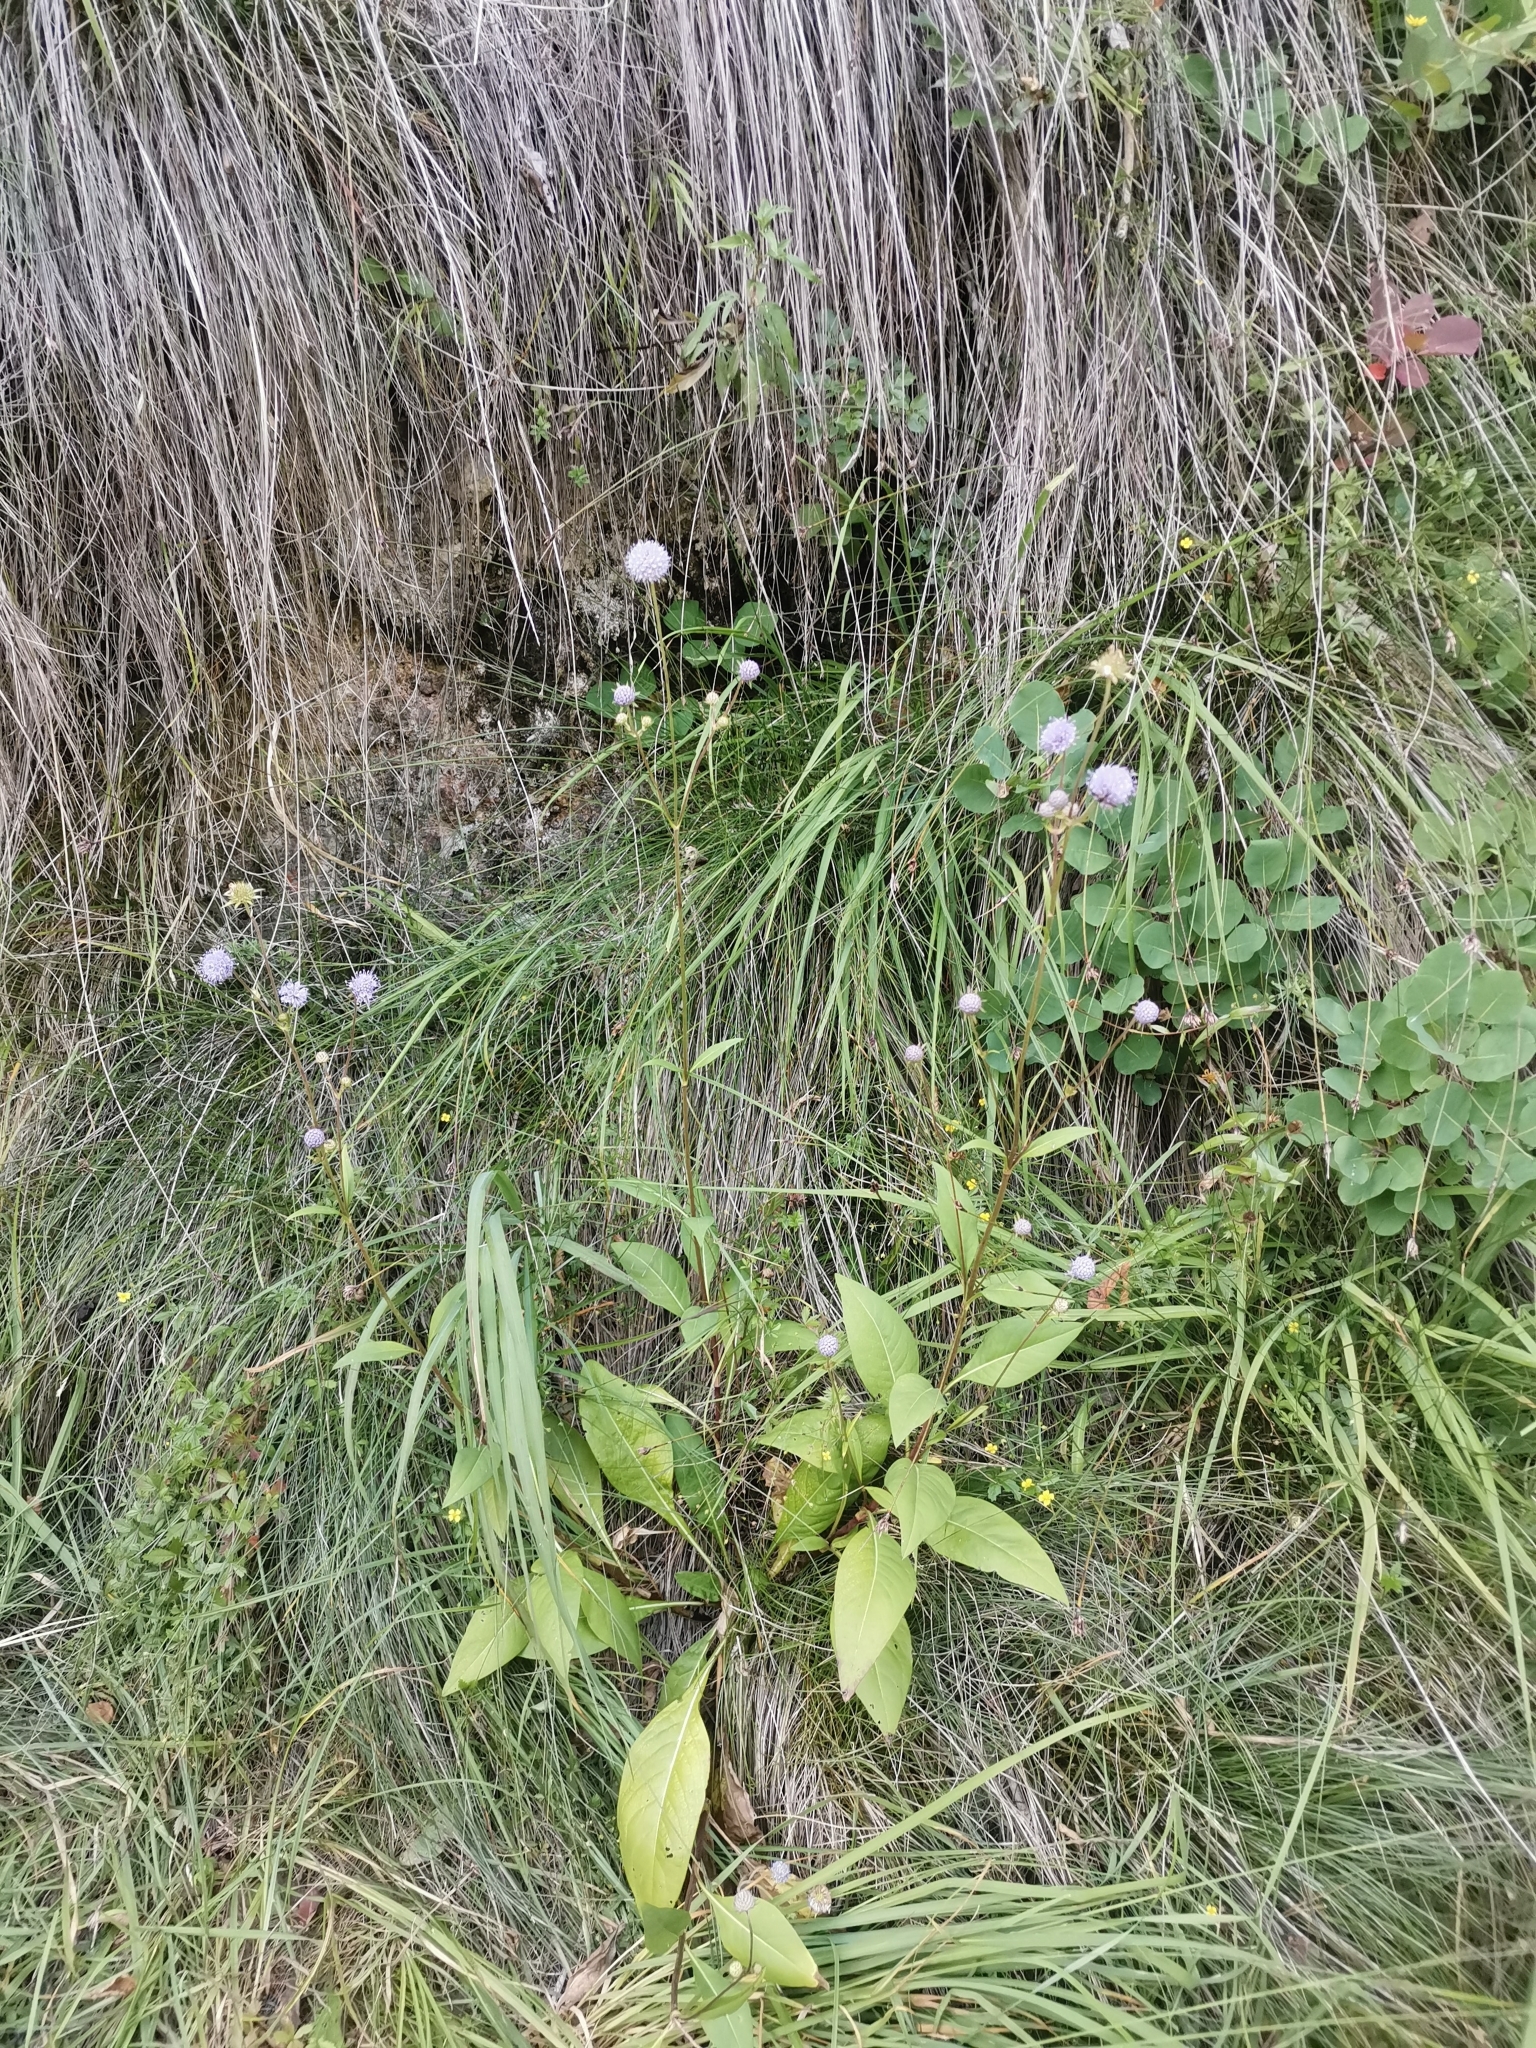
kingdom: Plantae
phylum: Tracheophyta
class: Magnoliopsida
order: Dipsacales
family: Caprifoliaceae
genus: Succisa
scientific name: Succisa pratensis
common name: Devil's-bit
